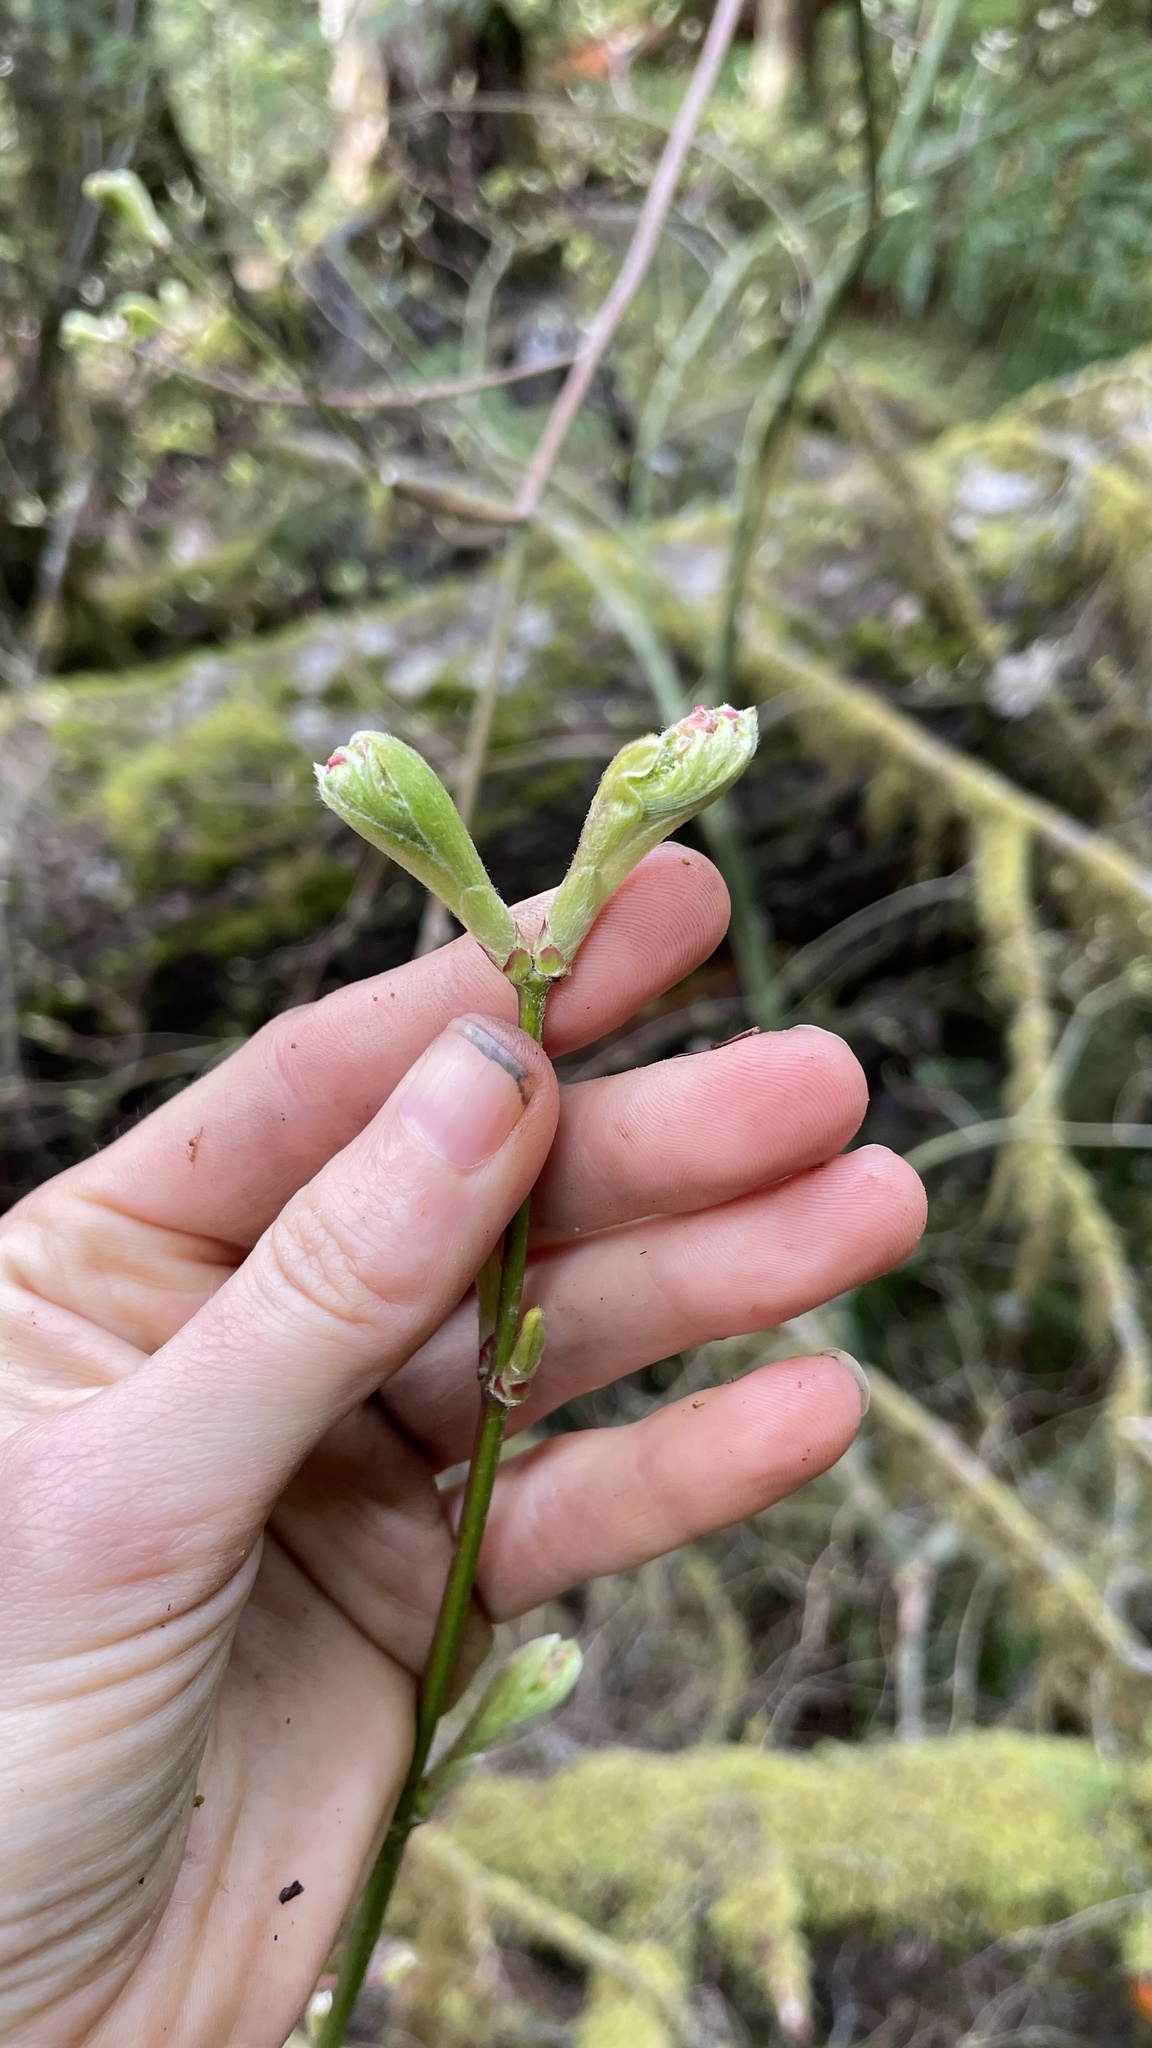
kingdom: Plantae
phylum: Tracheophyta
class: Magnoliopsida
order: Sapindales
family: Sapindaceae
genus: Acer
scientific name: Acer circinatum
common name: Vine maple
